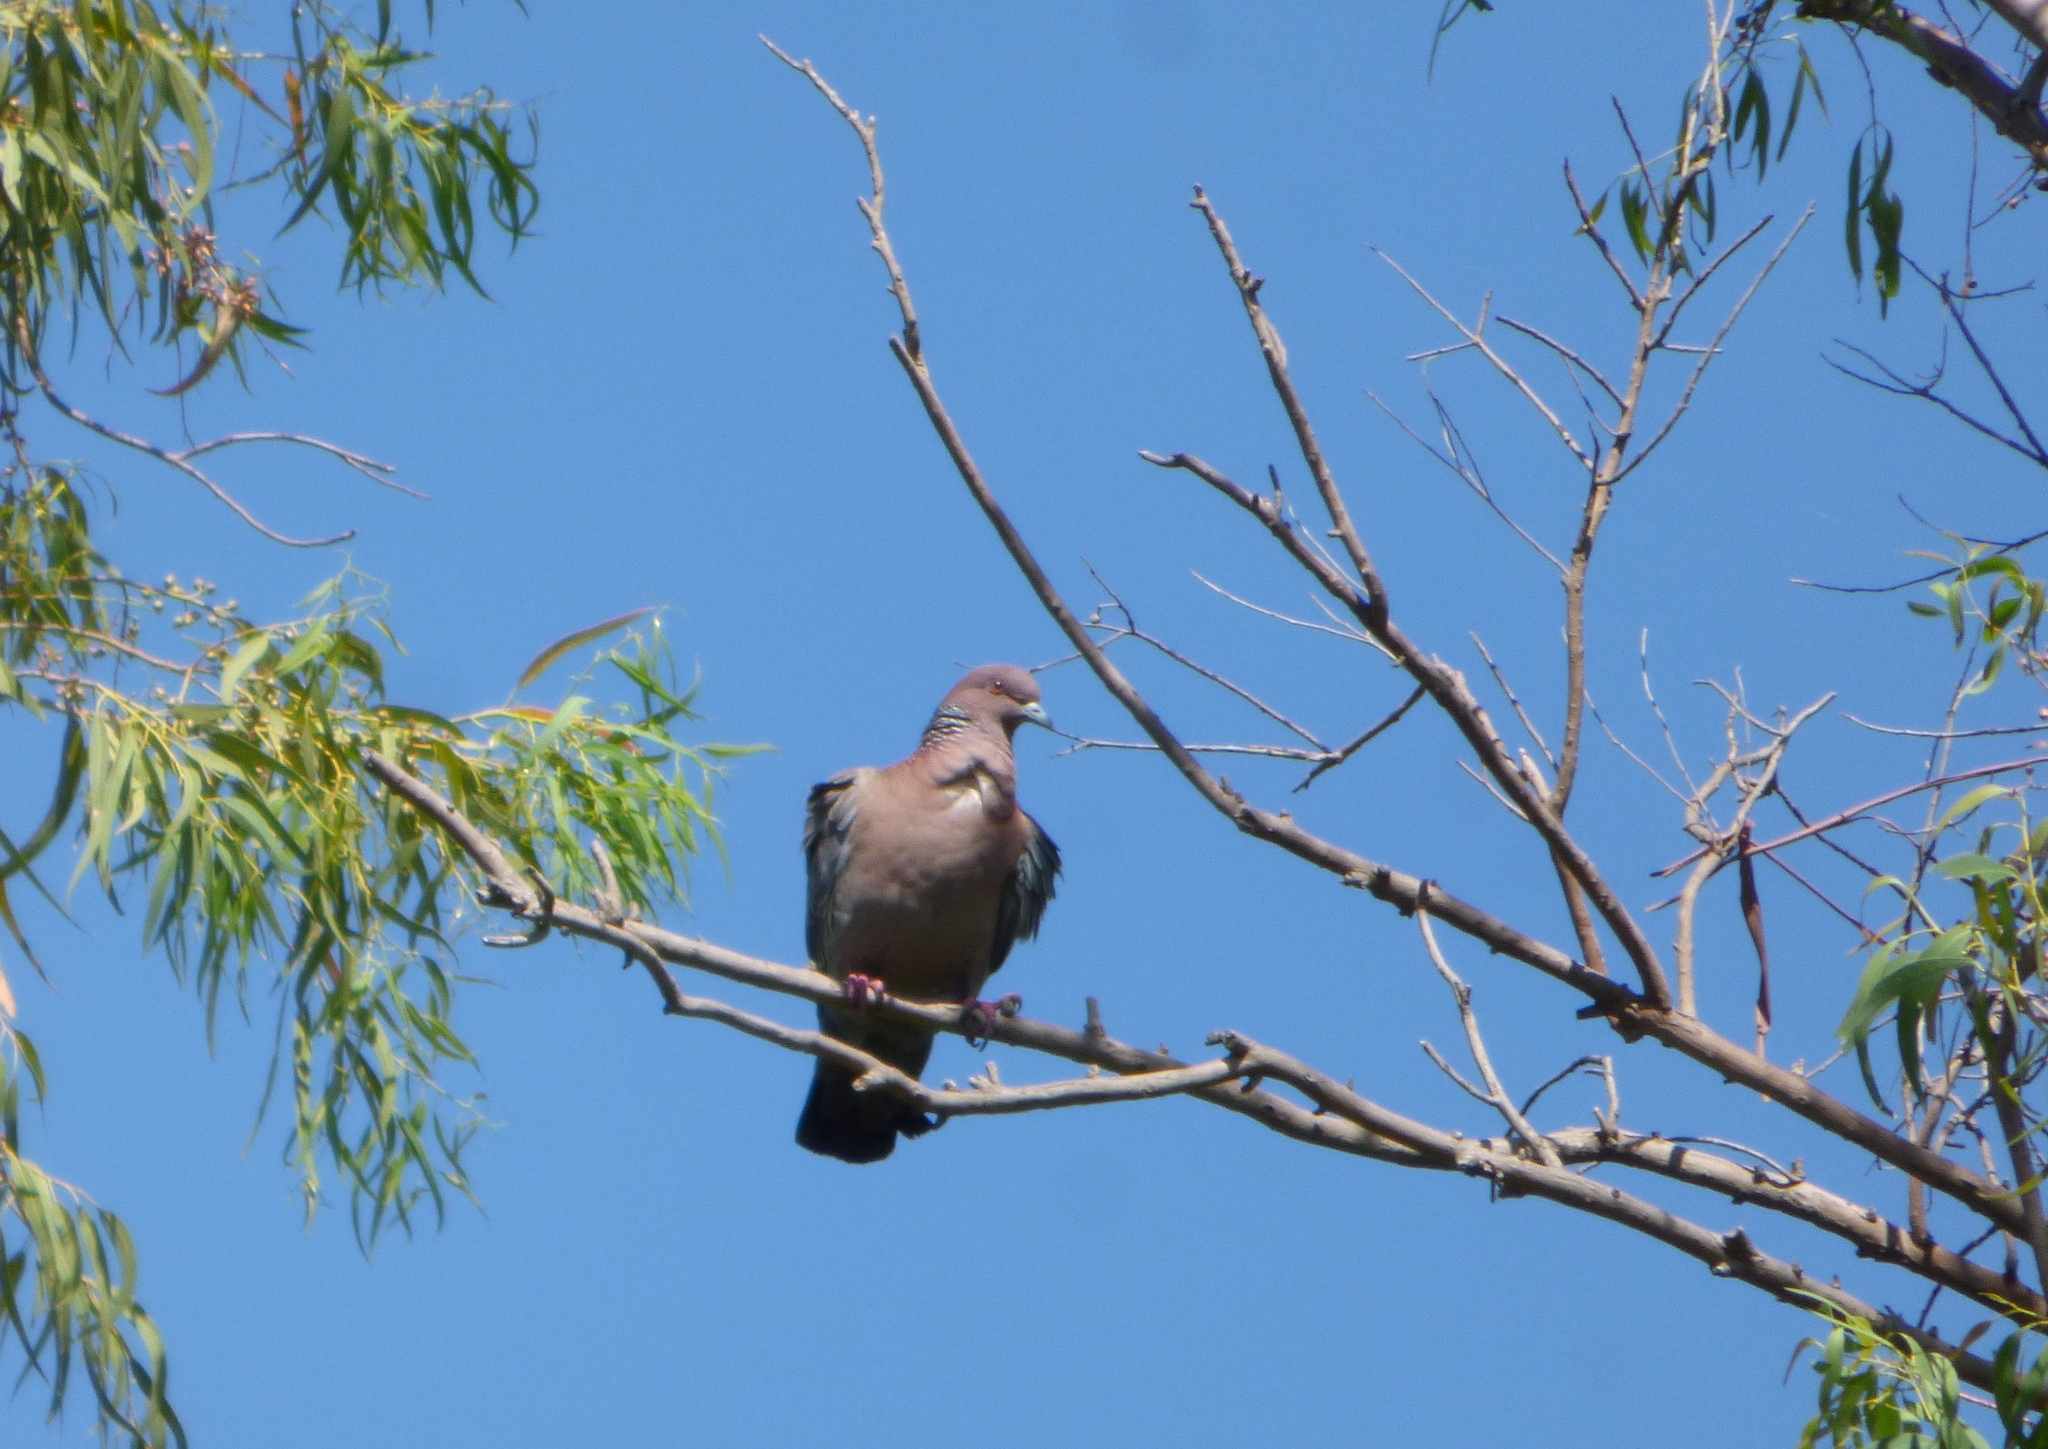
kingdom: Animalia
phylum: Chordata
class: Aves
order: Columbiformes
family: Columbidae
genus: Patagioenas
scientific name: Patagioenas picazuro
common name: Picazuro pigeon
